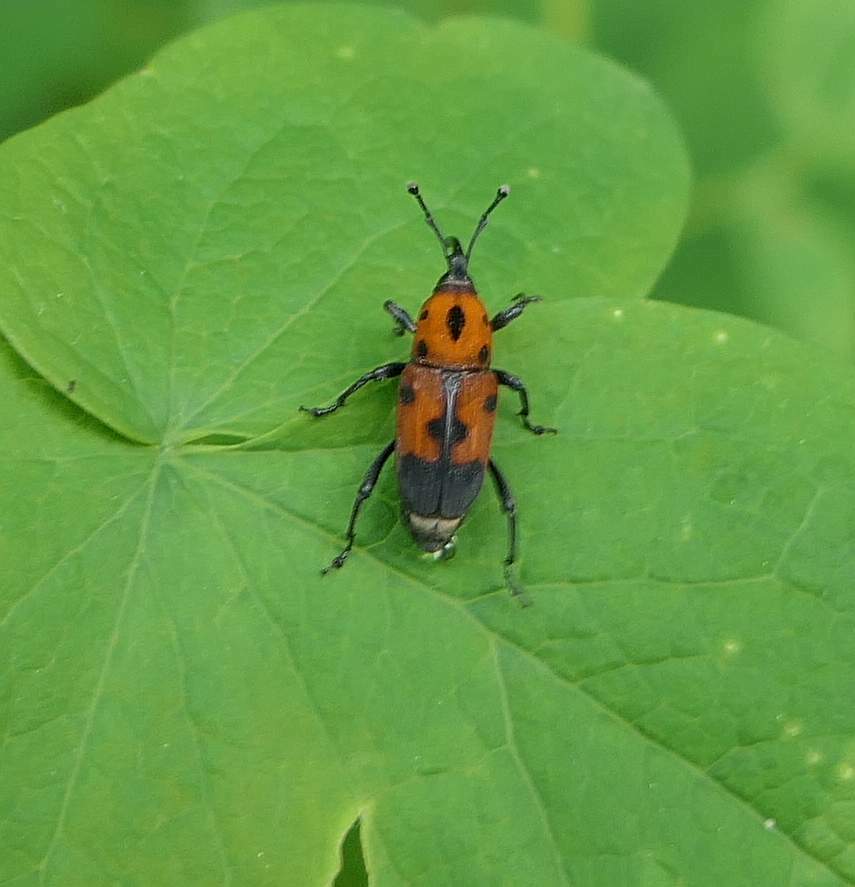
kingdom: Animalia
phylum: Arthropoda
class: Insecta
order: Coleoptera
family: Dryophthoridae
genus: Rhodobaenus
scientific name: Rhodobaenus quinquepunctatus
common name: Cocklebur weevil
